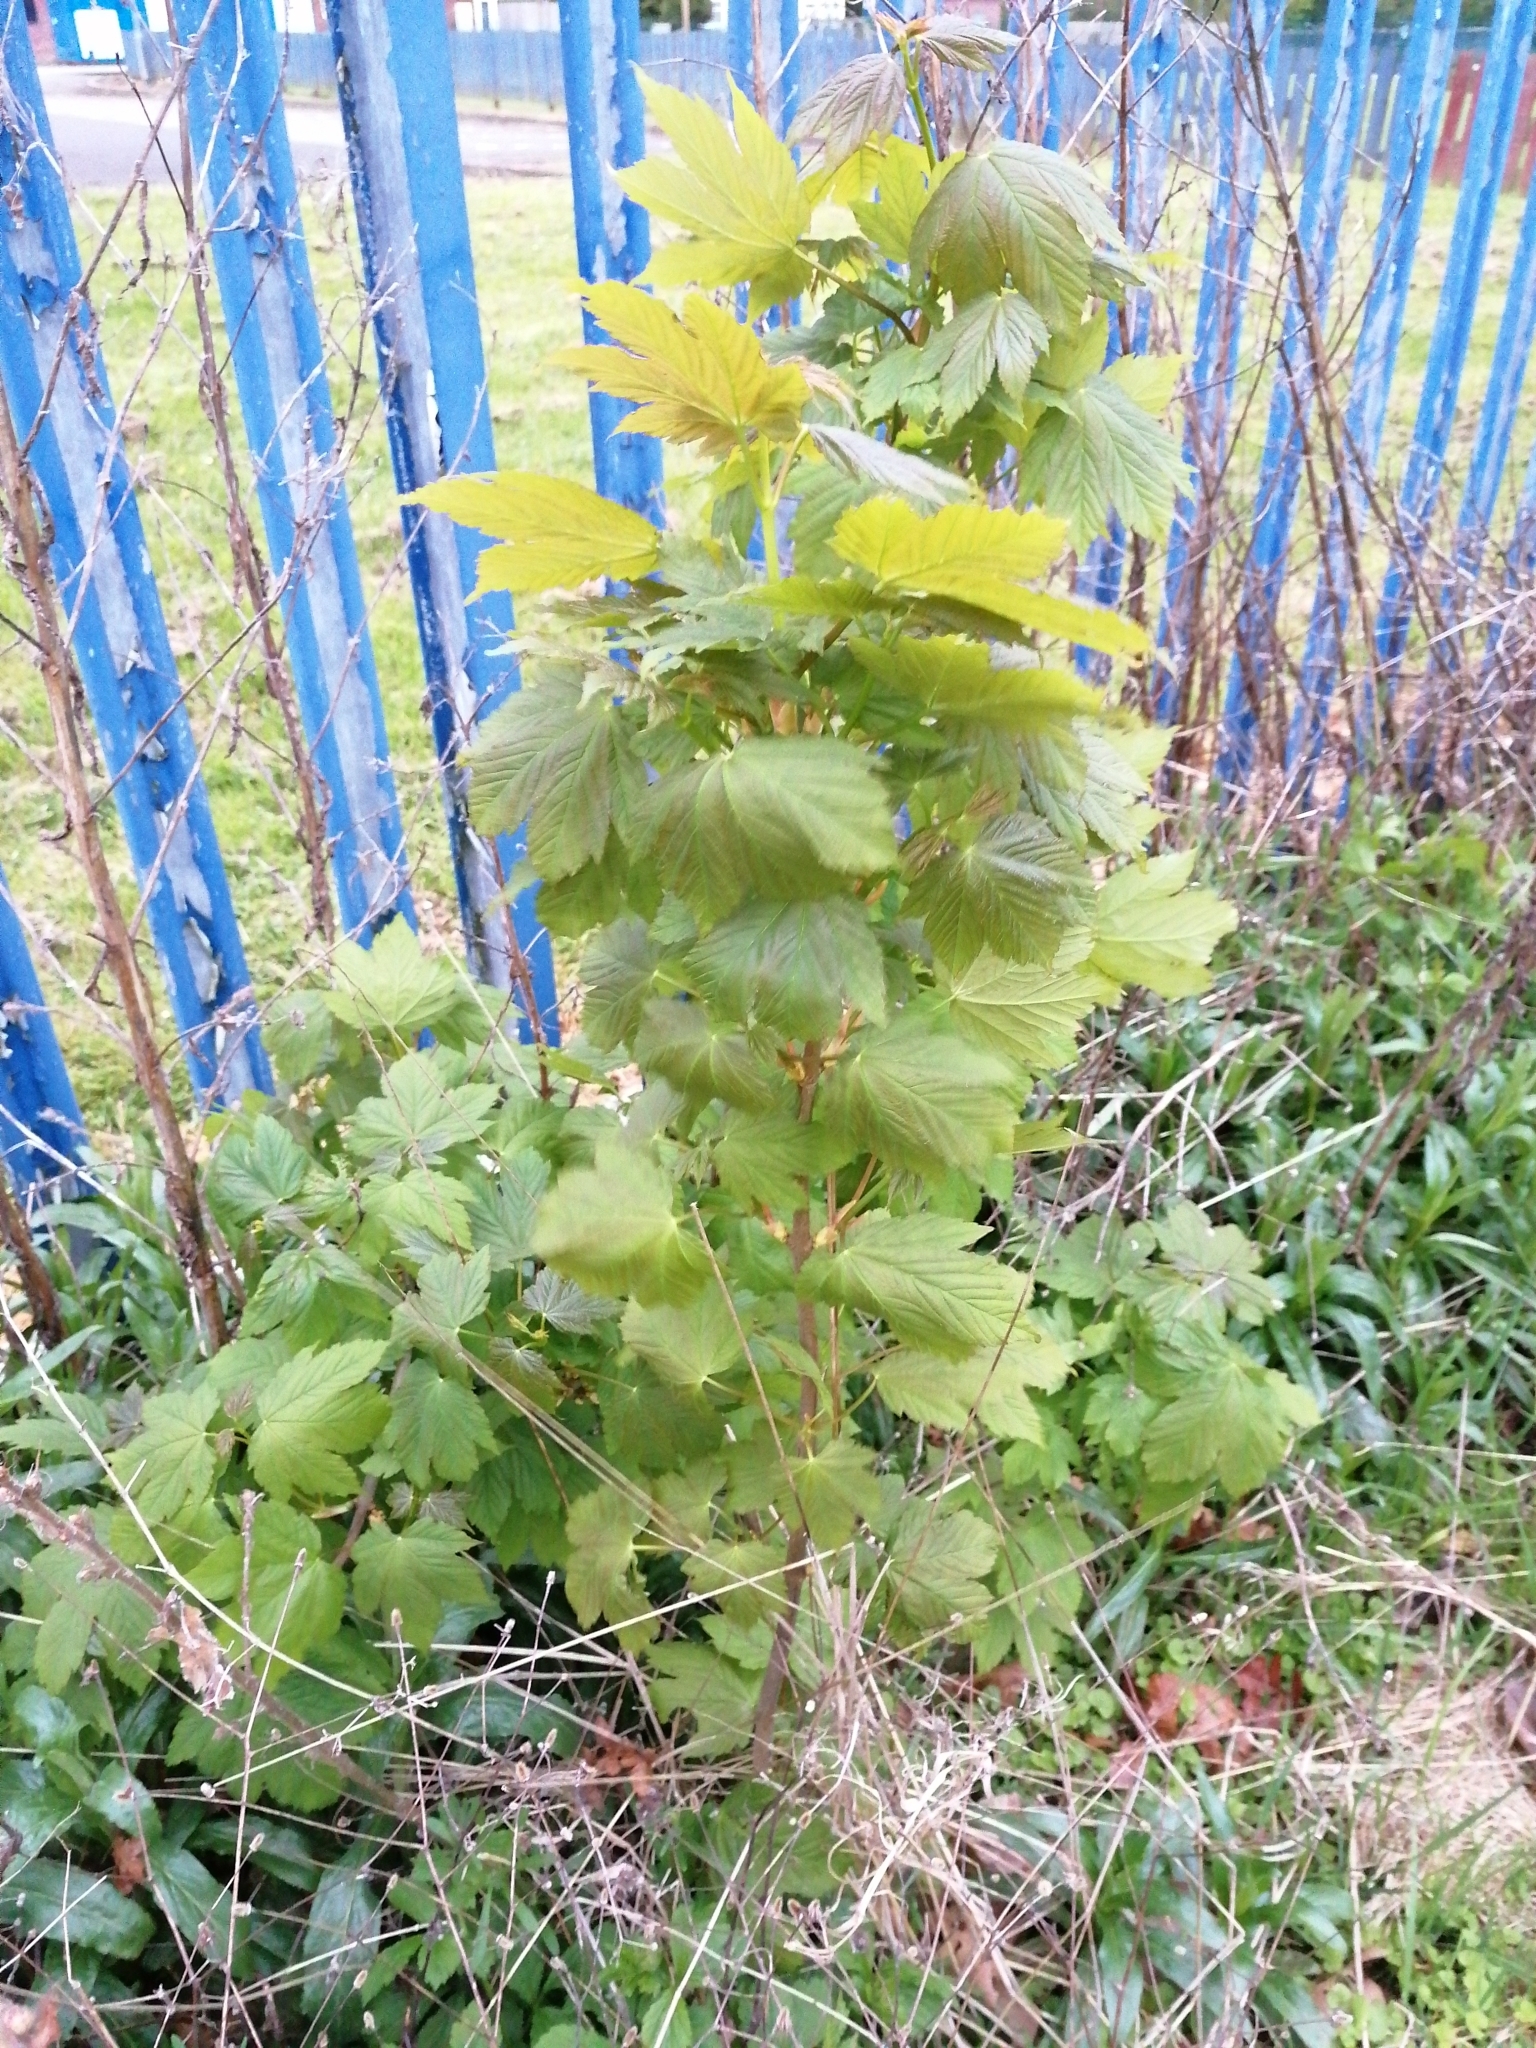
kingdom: Plantae
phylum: Tracheophyta
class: Magnoliopsida
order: Sapindales
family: Sapindaceae
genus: Acer
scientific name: Acer pseudoplatanus
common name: Sycamore
